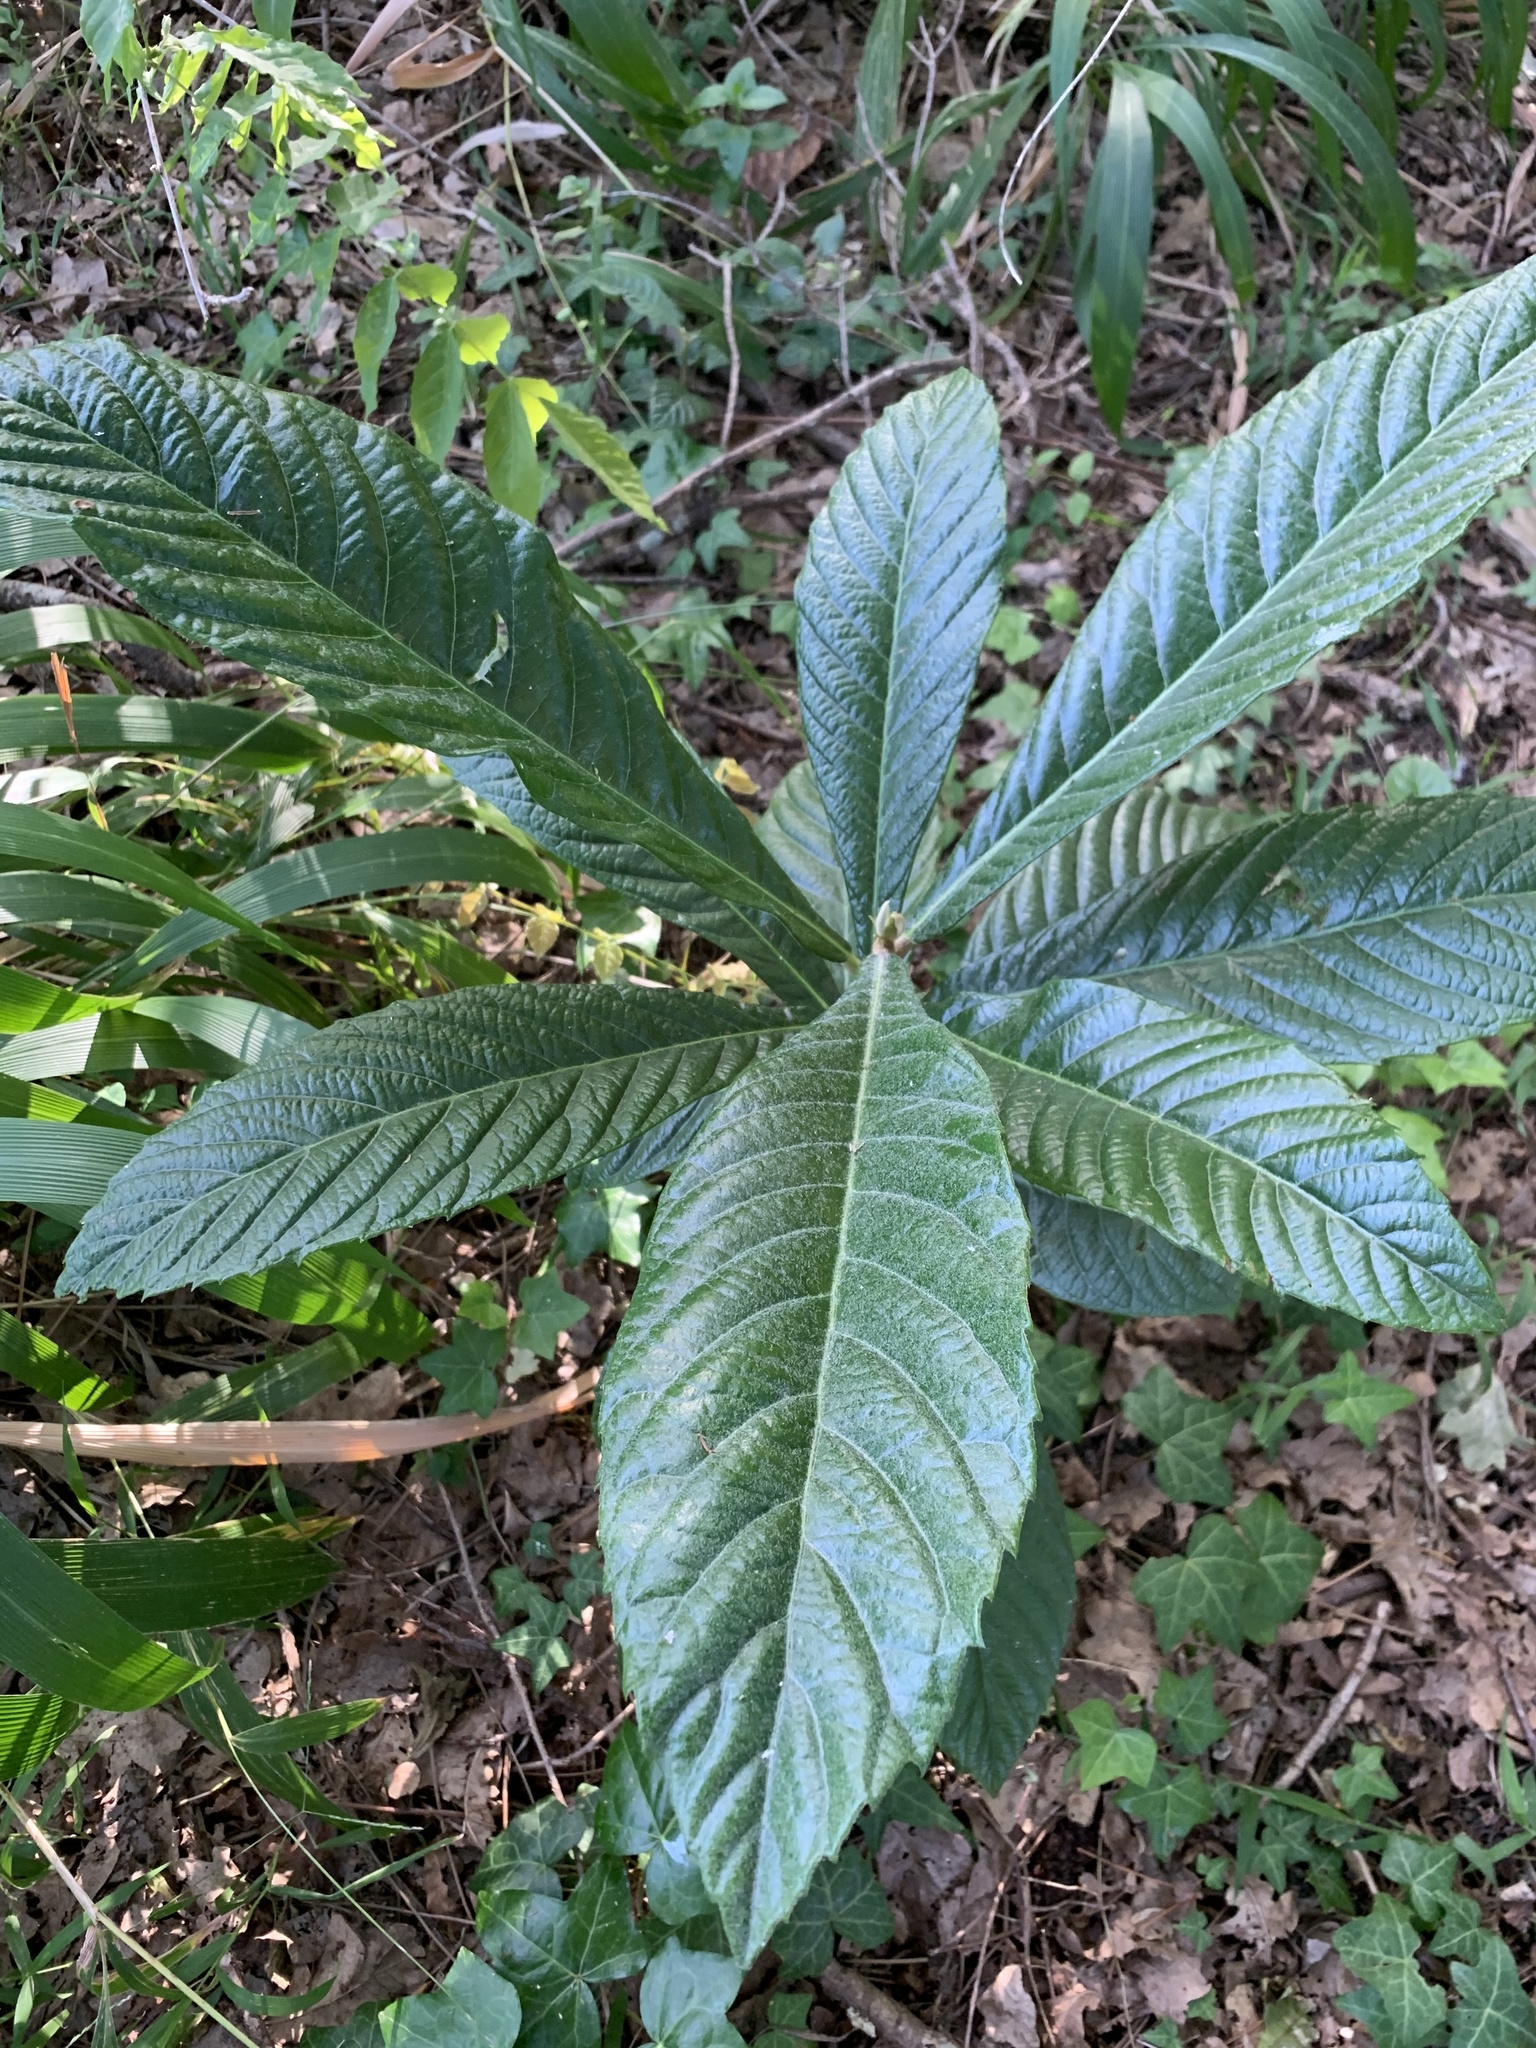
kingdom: Plantae
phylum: Tracheophyta
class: Magnoliopsida
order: Rosales
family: Rosaceae
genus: Rhaphiolepis
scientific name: Rhaphiolepis bibas
